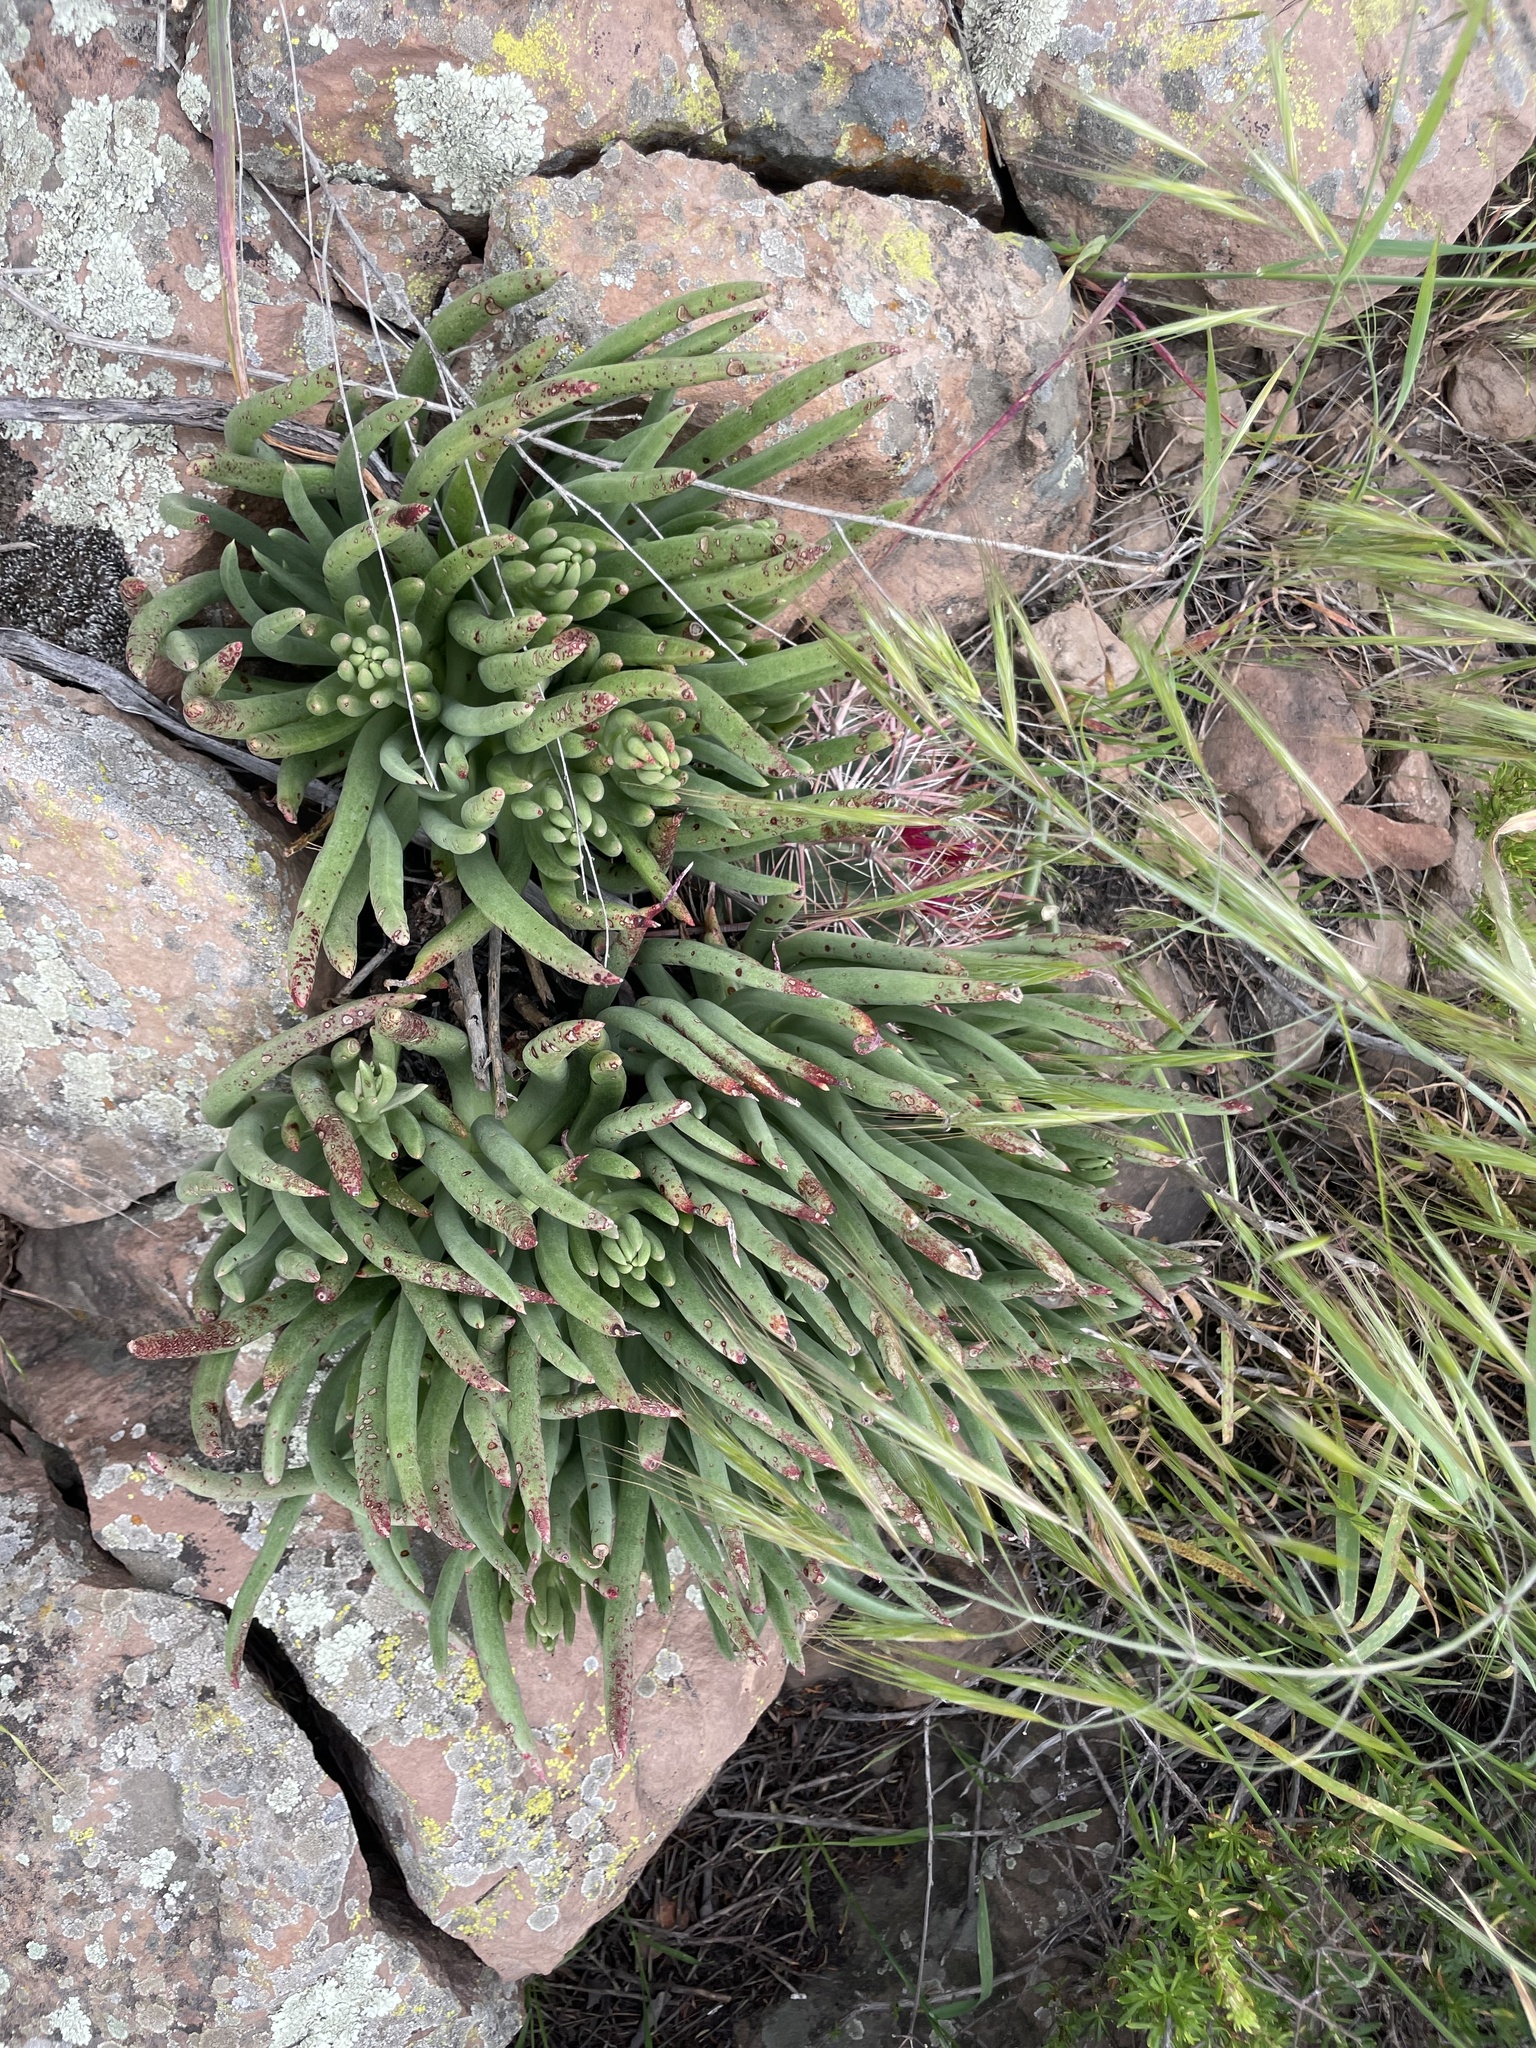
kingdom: Plantae
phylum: Tracheophyta
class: Magnoliopsida
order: Saxifragales
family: Crassulaceae
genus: Dudleya
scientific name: Dudleya edulis
